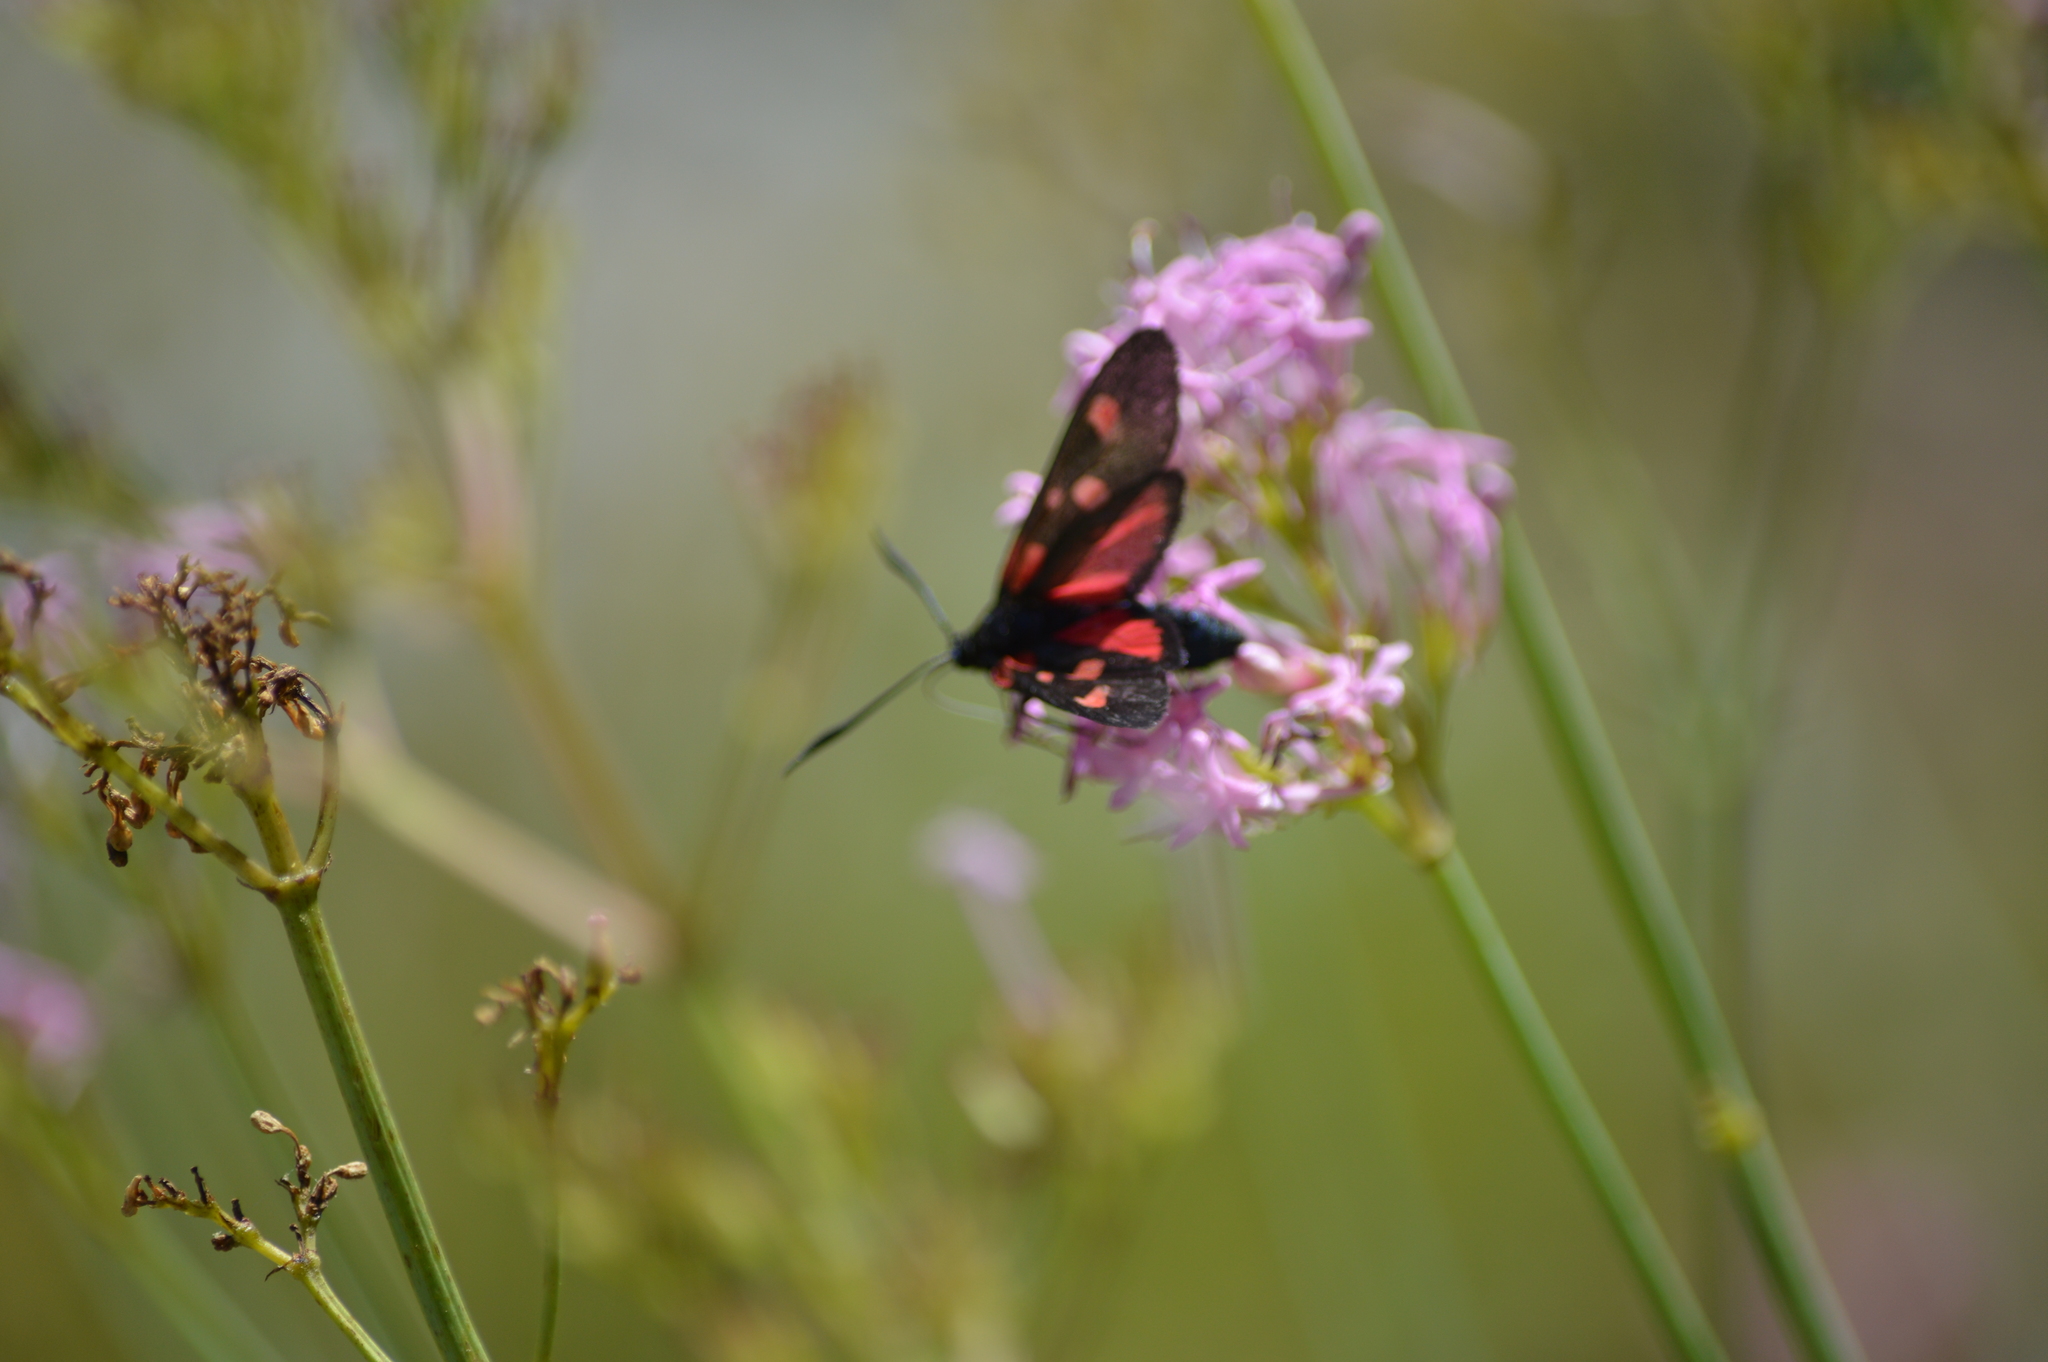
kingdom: Animalia
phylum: Arthropoda
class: Insecta
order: Lepidoptera
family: Zygaenidae
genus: Zygaena
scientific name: Zygaena lonicerae
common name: Narrow-bordered five-spot burnet
